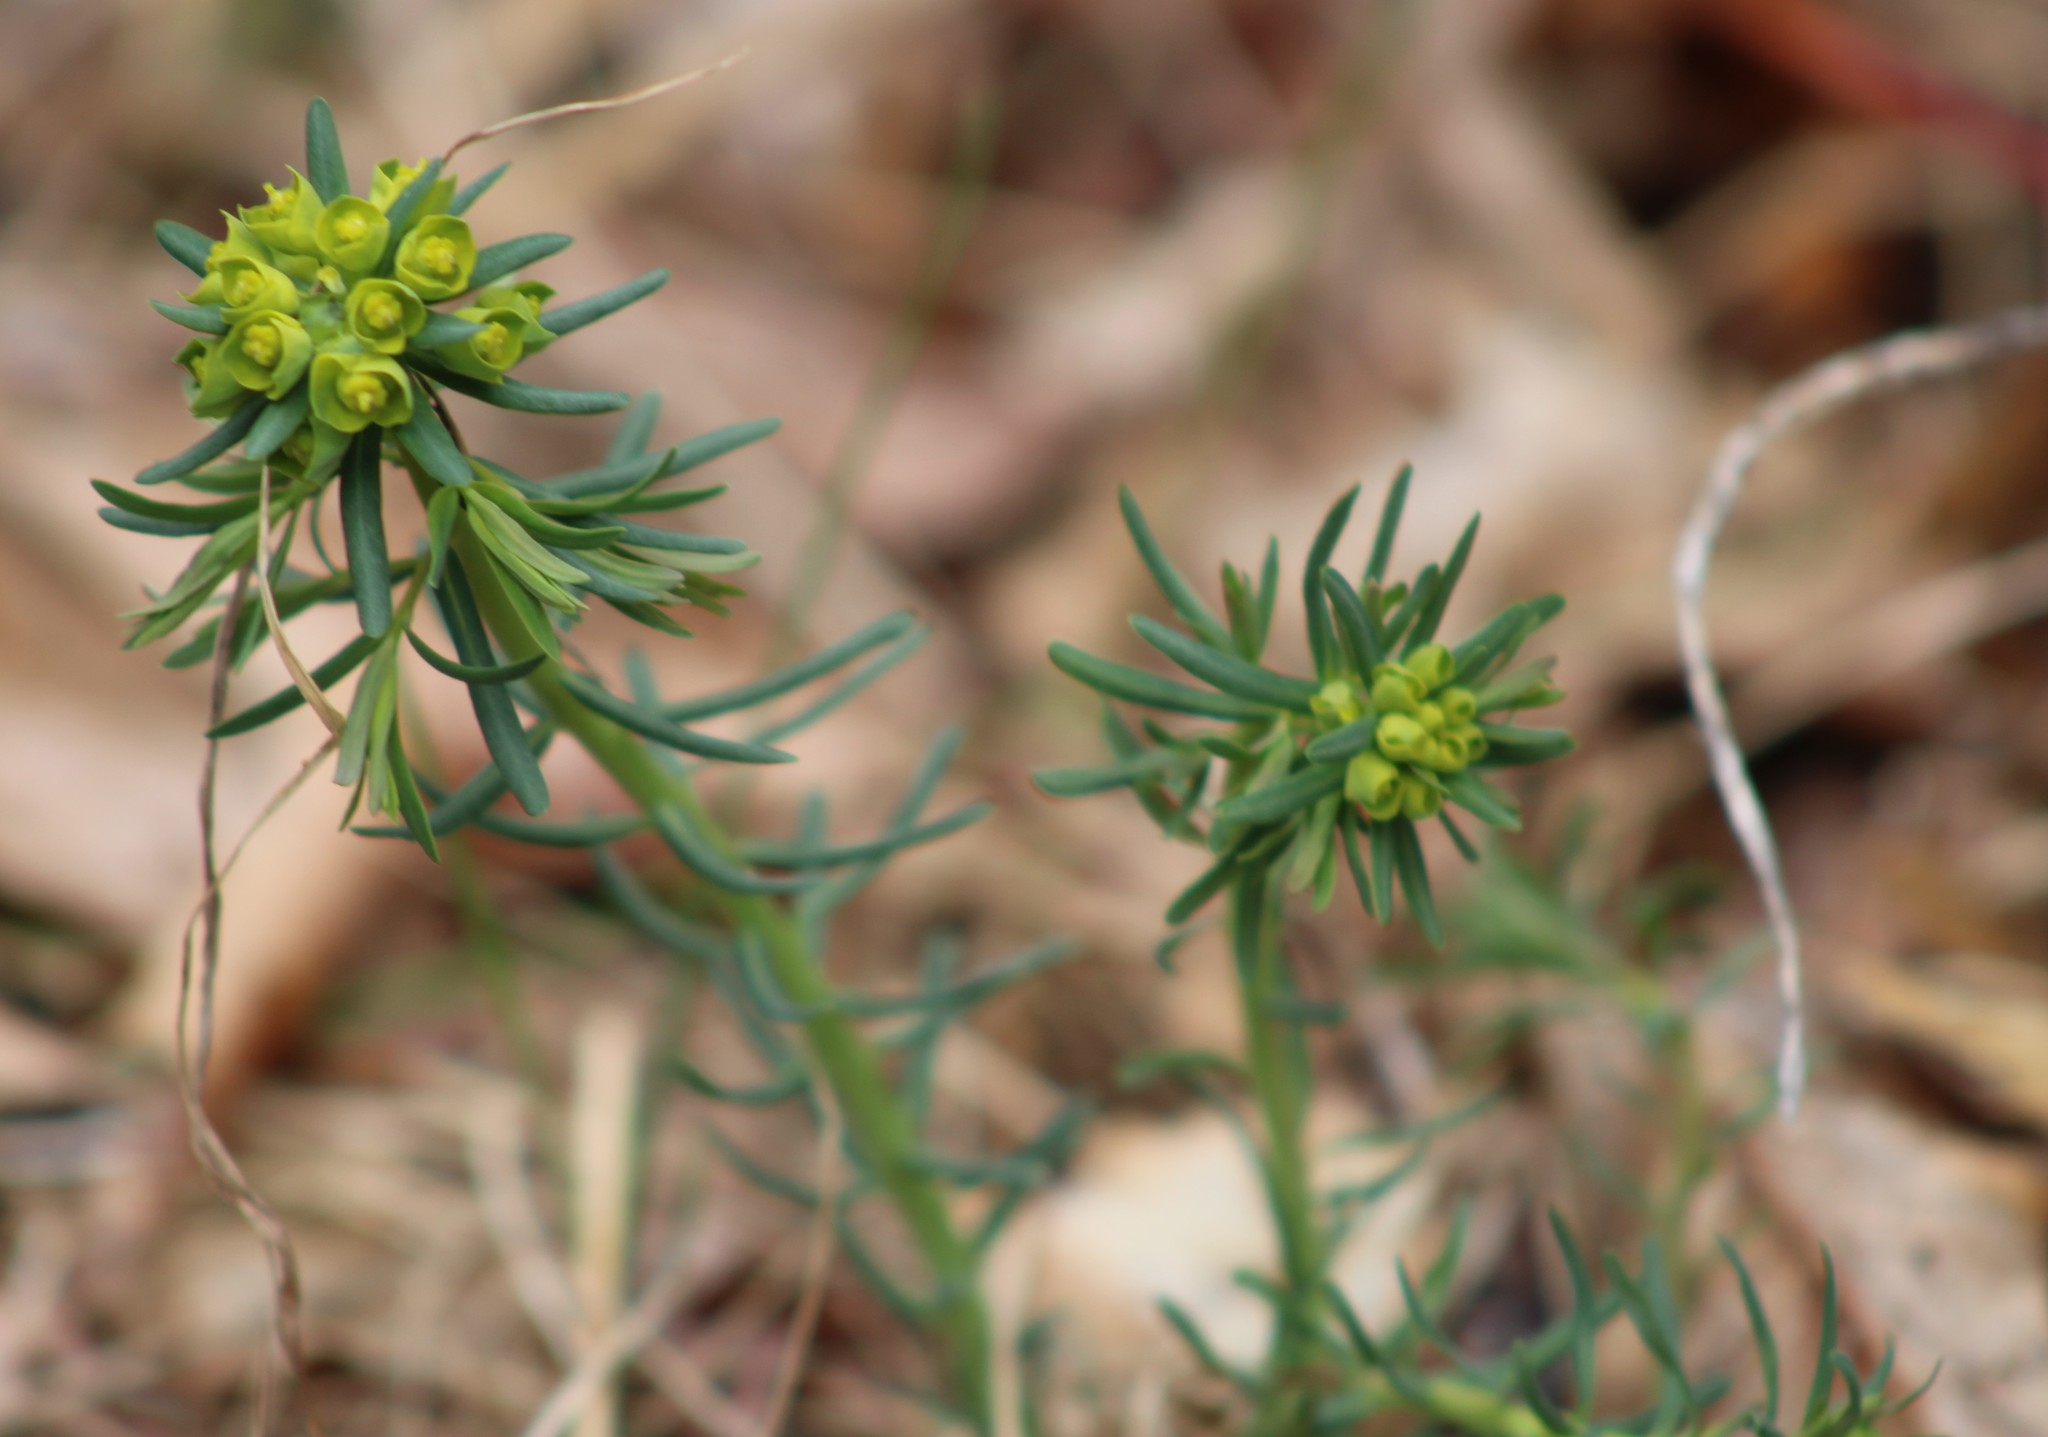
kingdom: Plantae
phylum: Tracheophyta
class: Magnoliopsida
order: Malpighiales
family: Euphorbiaceae
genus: Euphorbia
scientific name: Euphorbia cyparissias
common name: Cypress spurge
